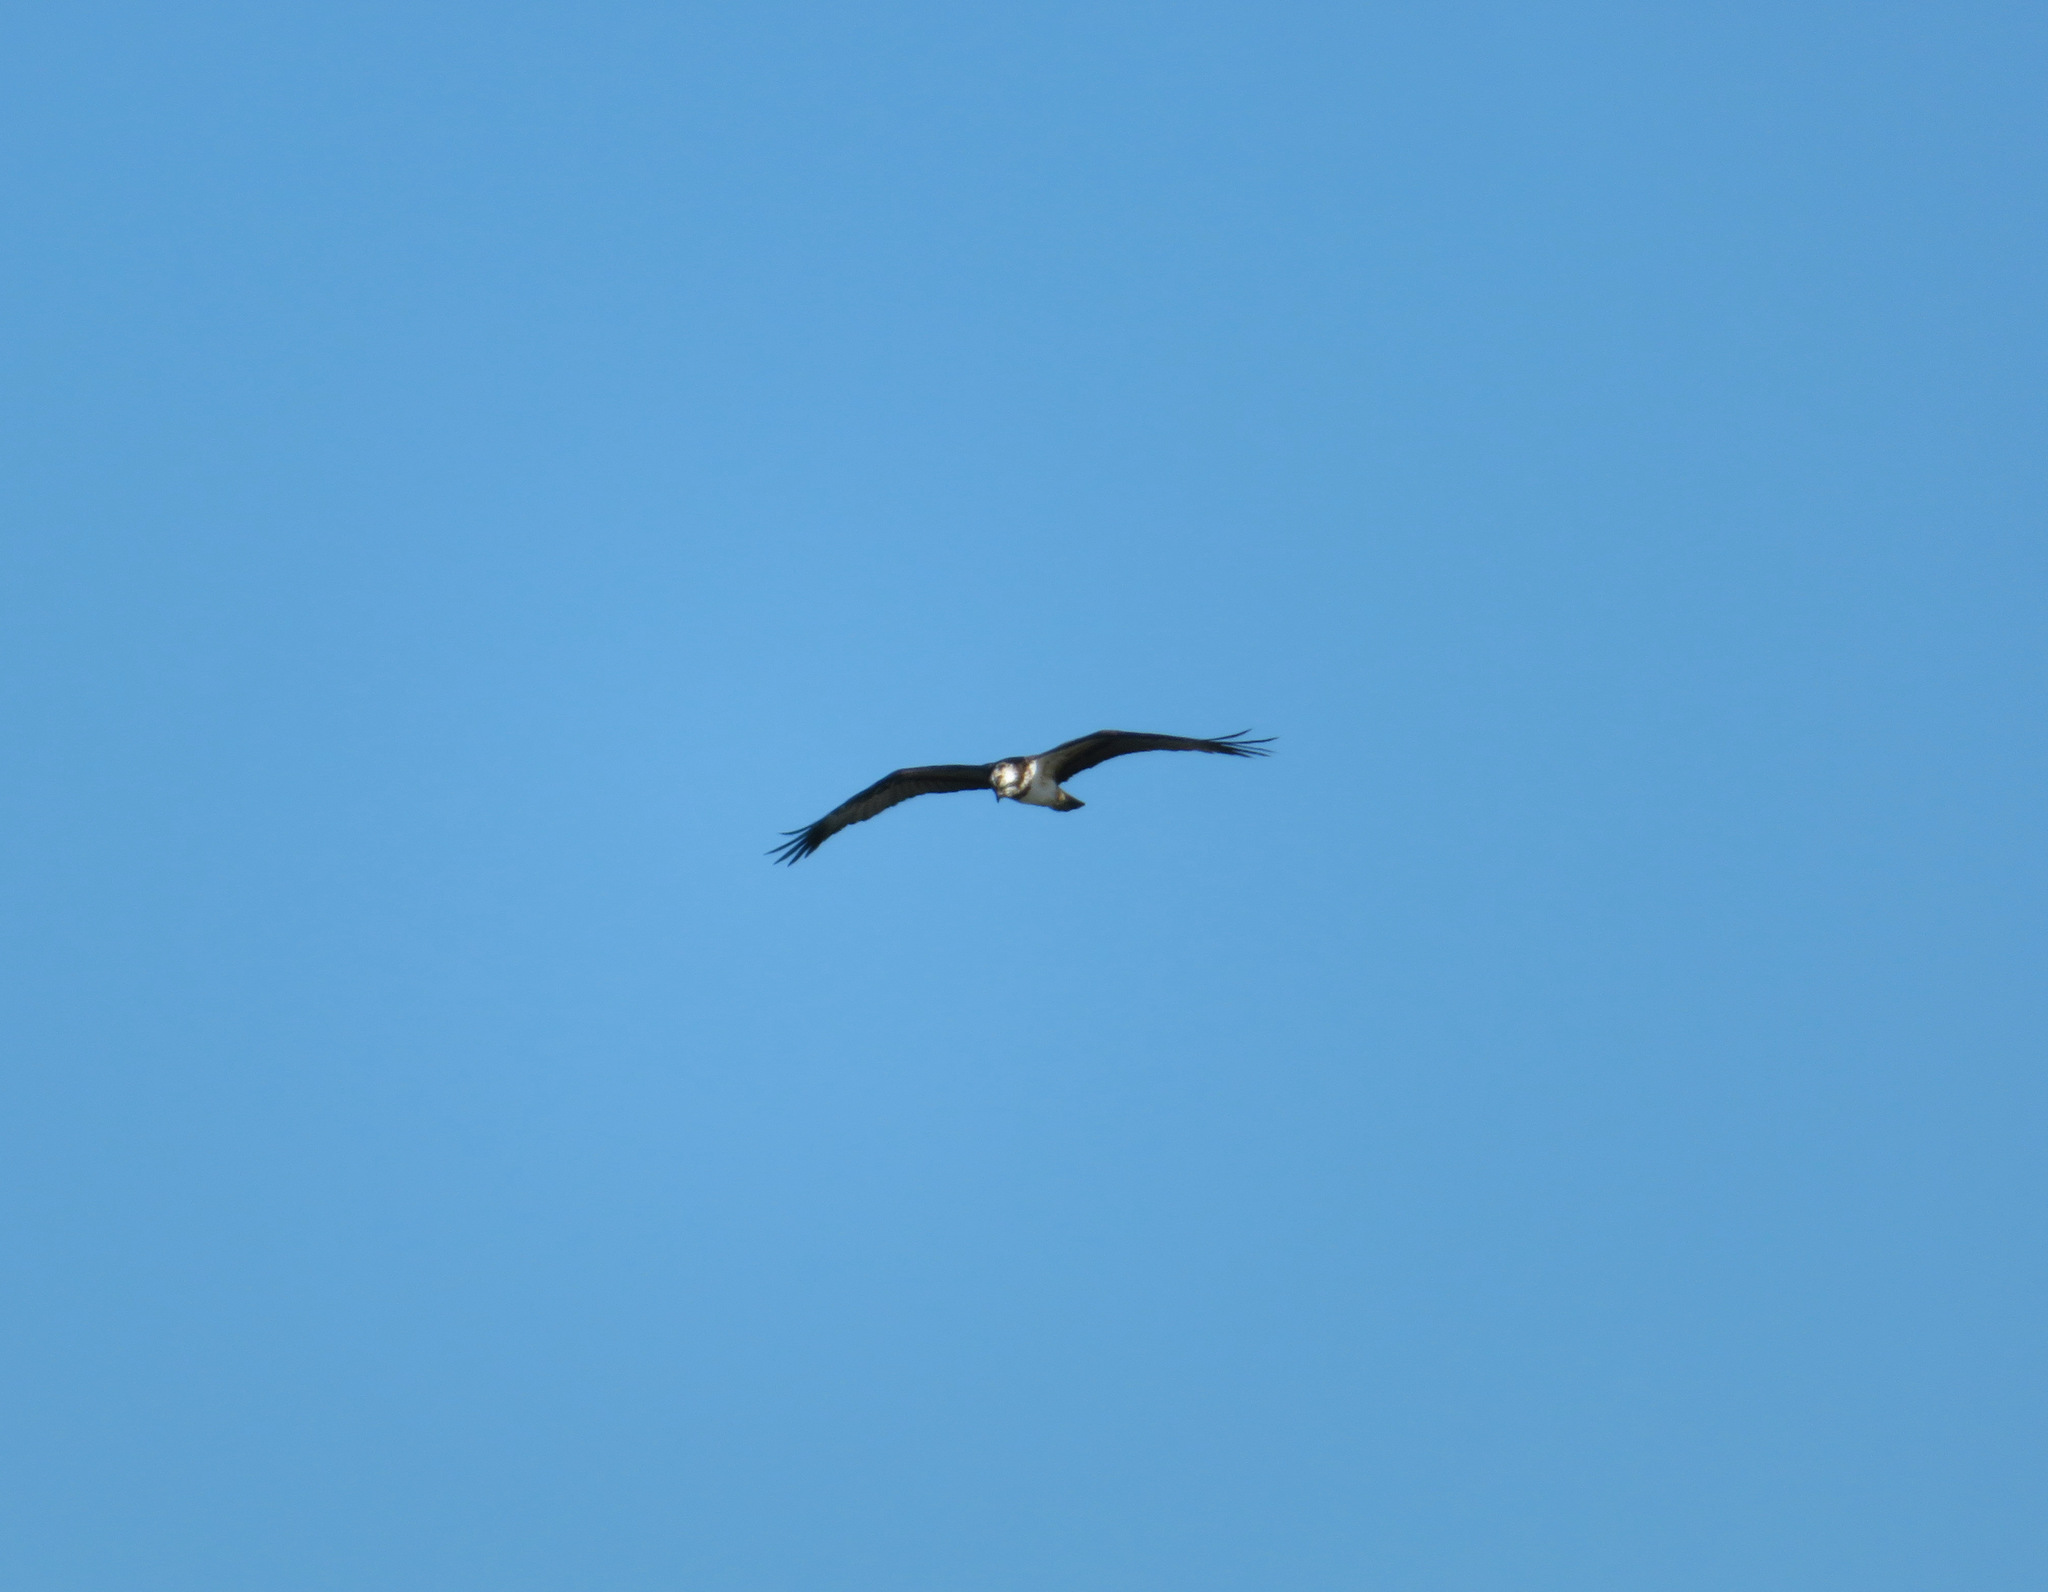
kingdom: Animalia
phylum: Chordata
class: Aves
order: Accipitriformes
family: Pandionidae
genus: Pandion
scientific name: Pandion haliaetus
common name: Osprey
